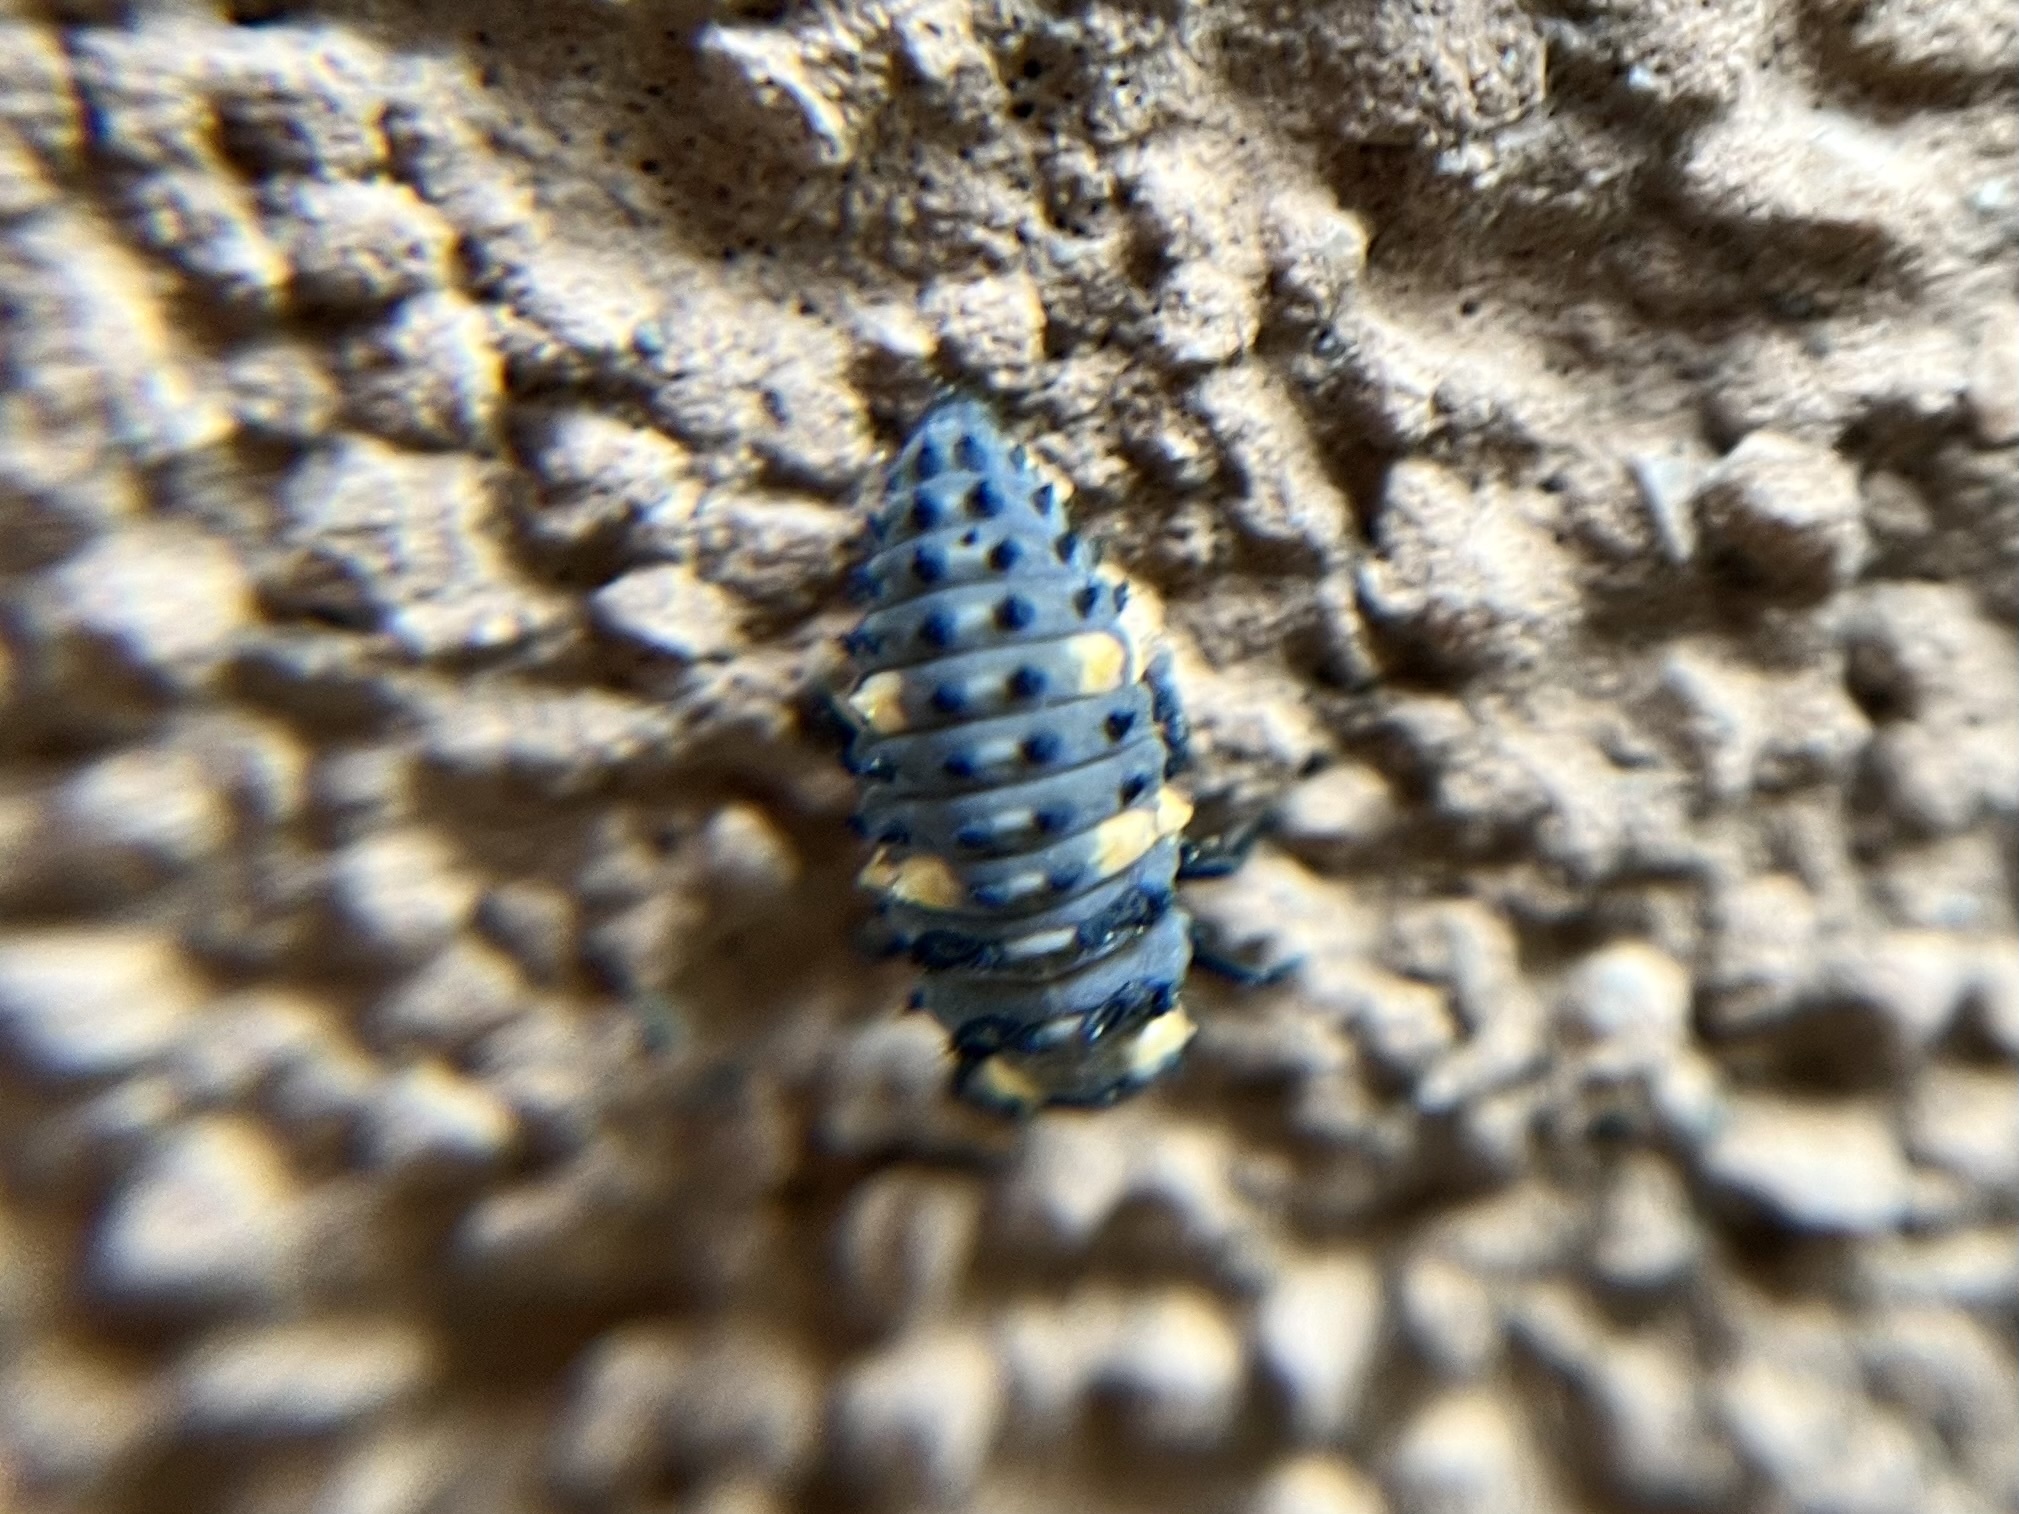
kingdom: Animalia
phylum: Arthropoda
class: Insecta
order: Coleoptera
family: Coccinellidae
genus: Coccinella
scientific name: Coccinella septempunctata
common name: Sevenspotted lady beetle
